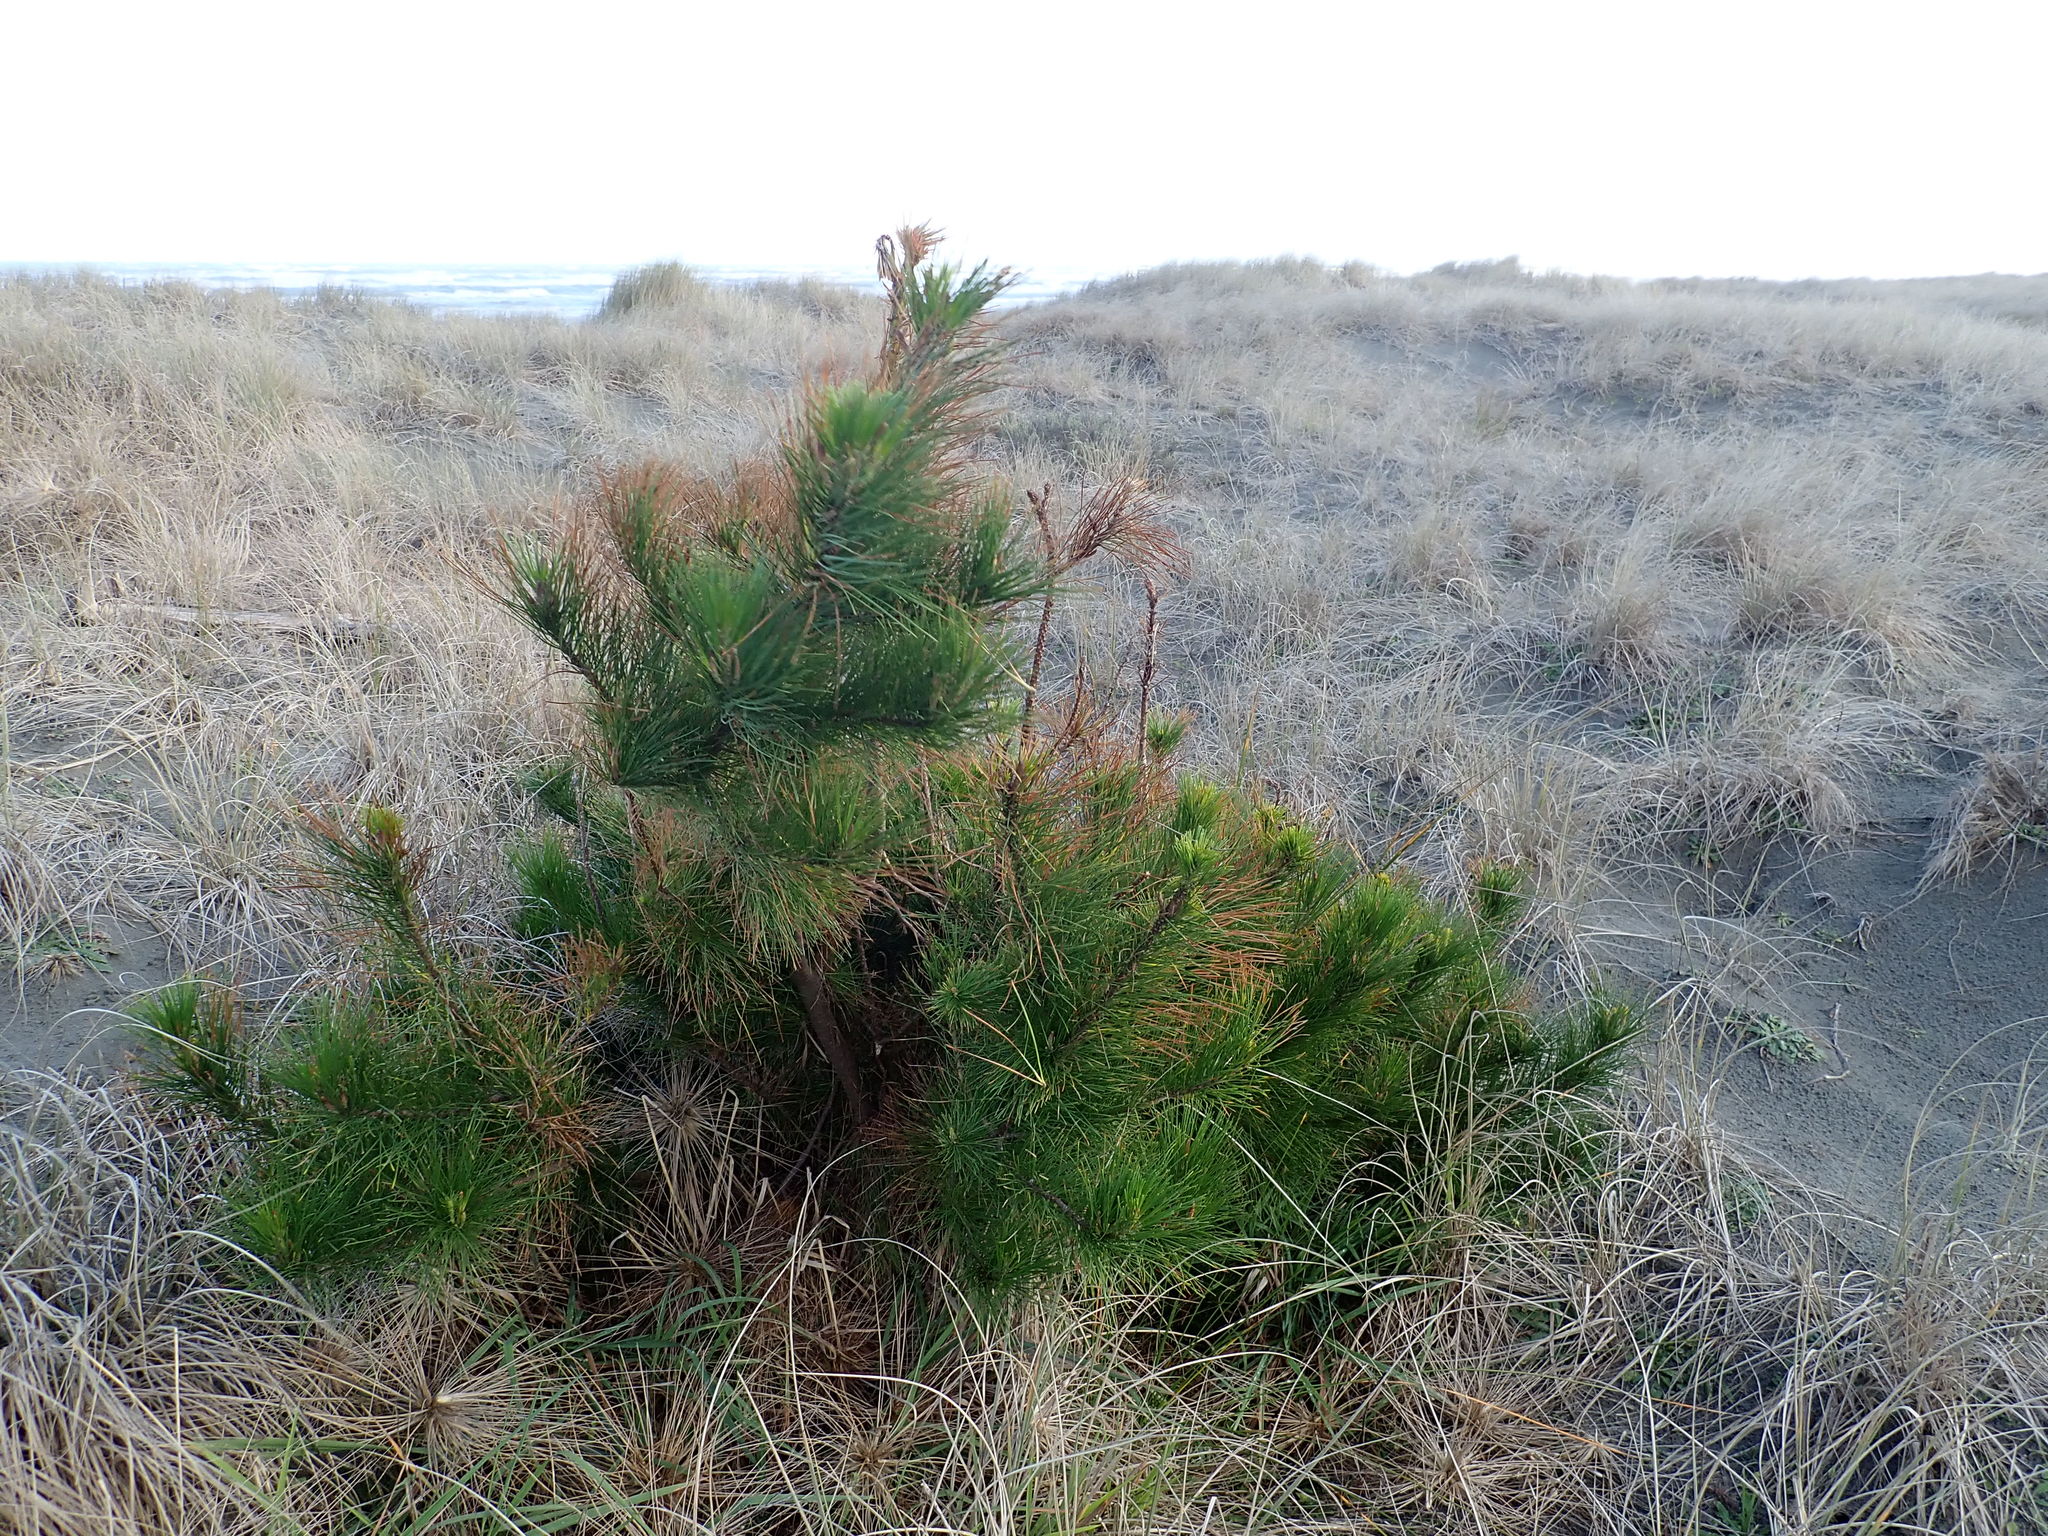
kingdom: Plantae
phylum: Tracheophyta
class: Pinopsida
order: Pinales
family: Pinaceae
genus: Pinus
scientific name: Pinus radiata
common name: Monterey pine
